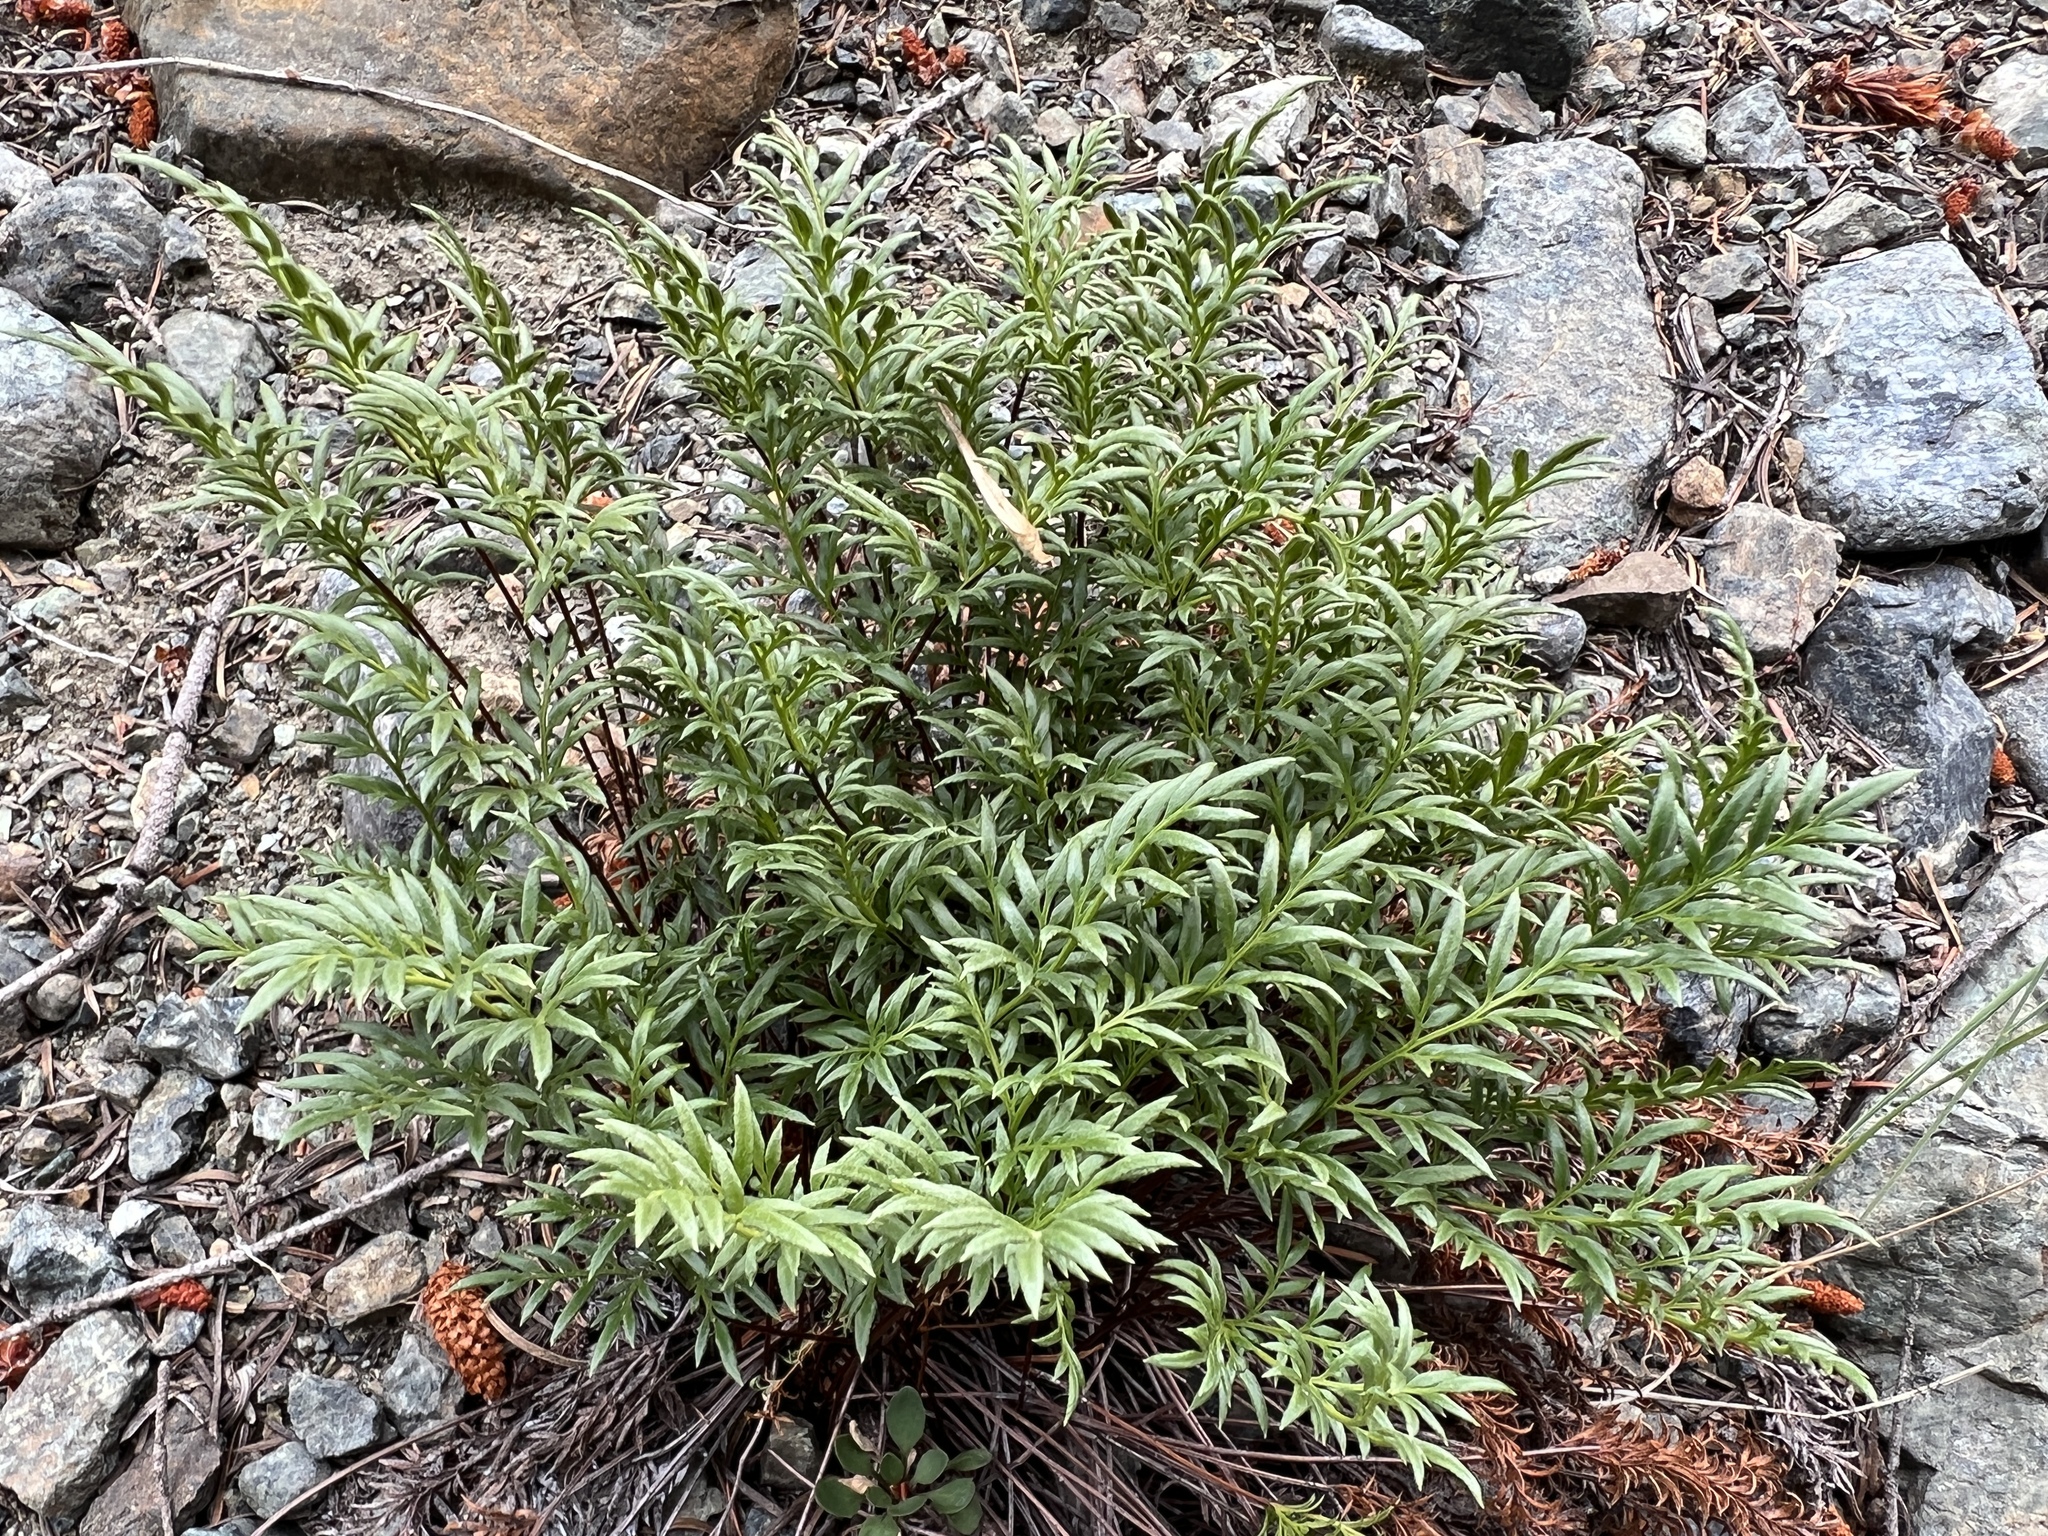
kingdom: Plantae
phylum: Tracheophyta
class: Polypodiopsida
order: Polypodiales
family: Pteridaceae
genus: Aspidotis
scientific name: Aspidotis densa
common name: Indian's dream
